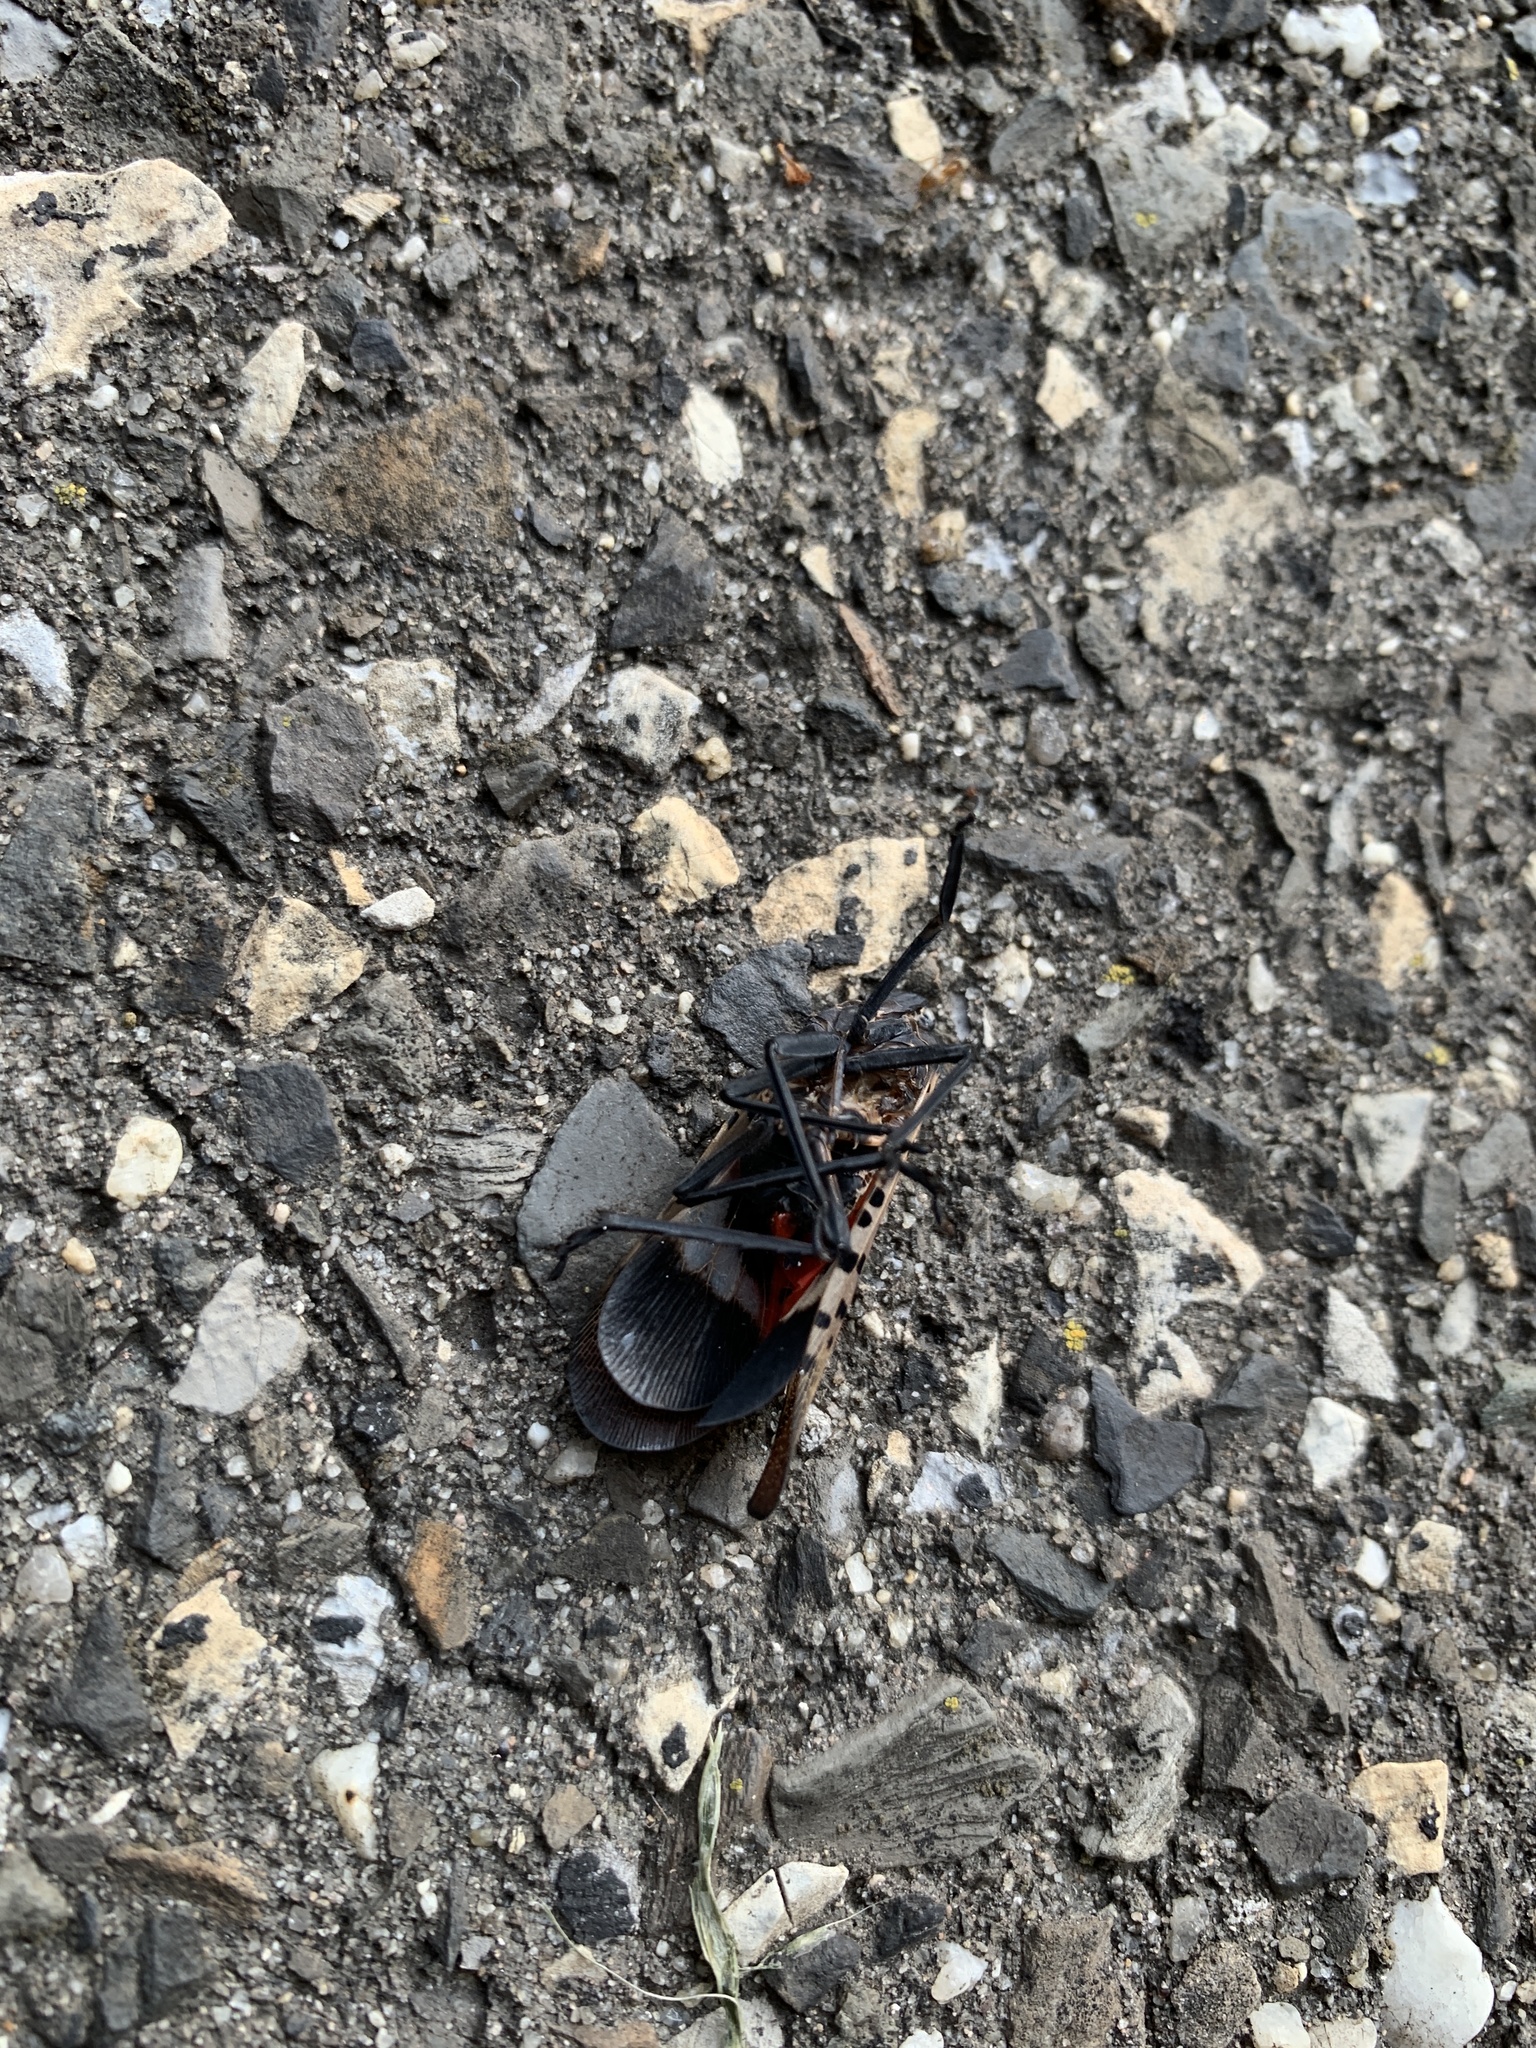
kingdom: Animalia
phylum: Arthropoda
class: Insecta
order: Hemiptera
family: Fulgoridae
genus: Lycorma
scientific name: Lycorma delicatula
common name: Spotted lanternfly
